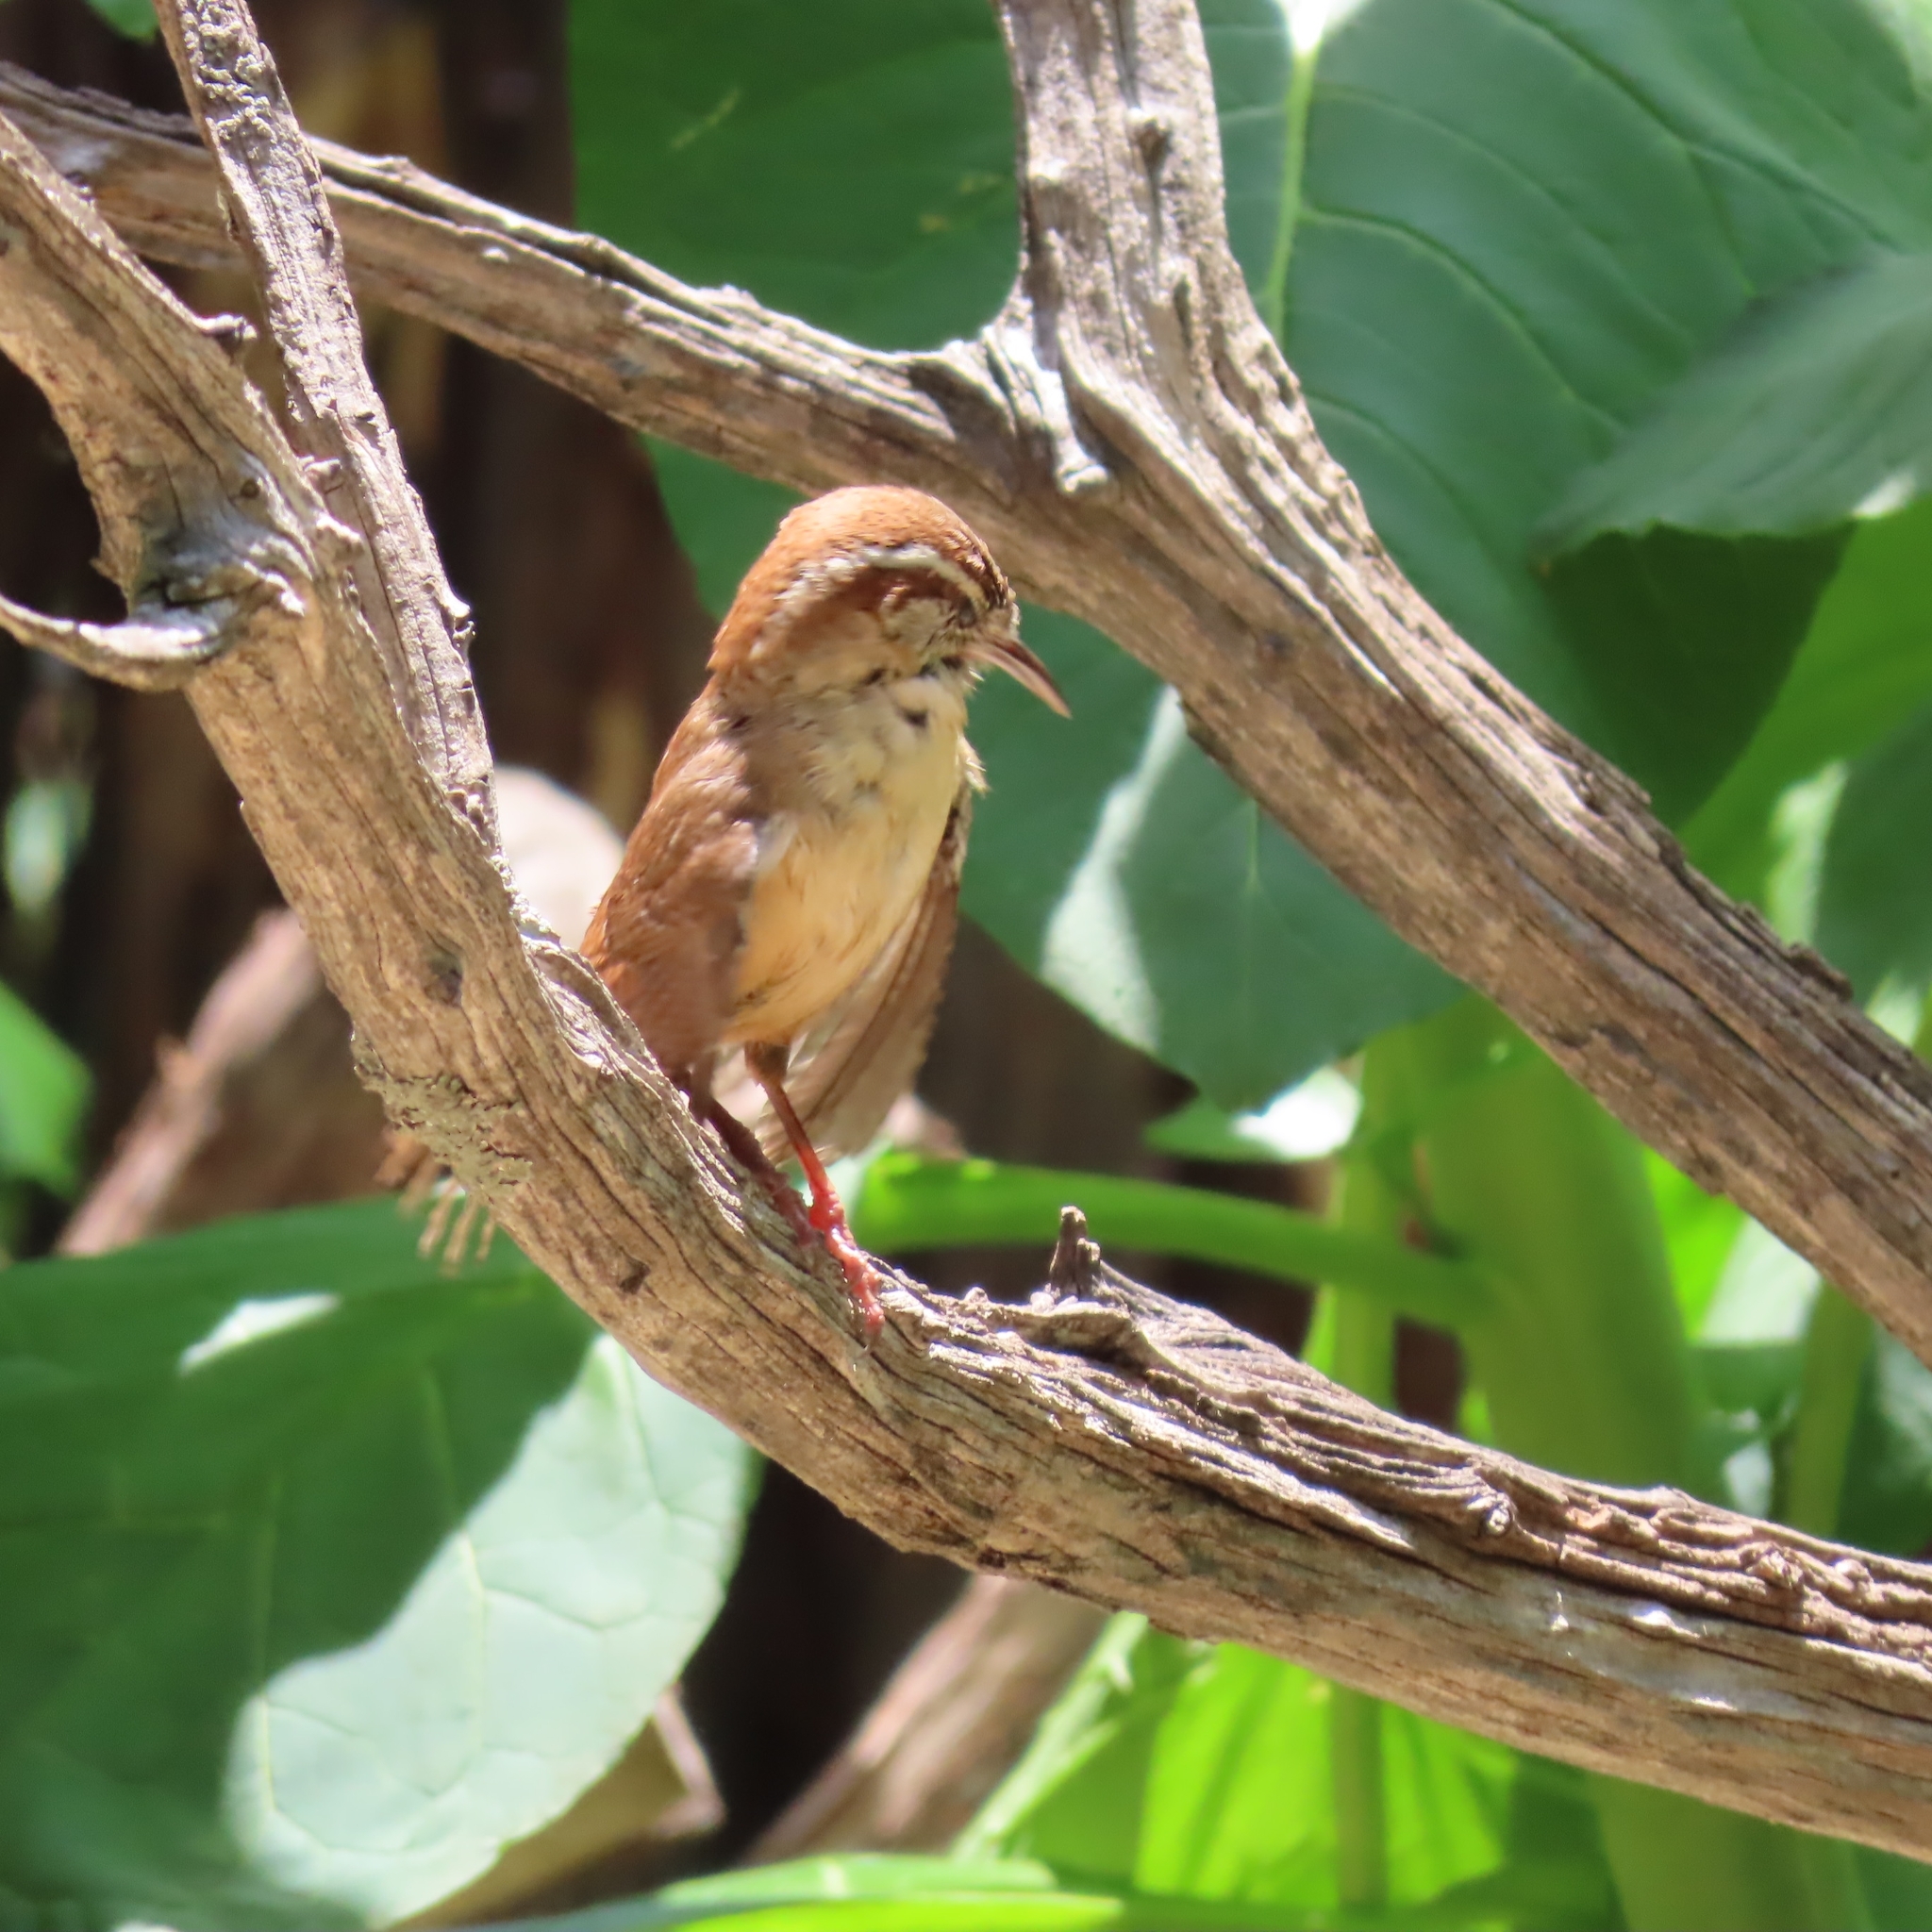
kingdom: Animalia
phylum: Chordata
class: Aves
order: Passeriformes
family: Troglodytidae
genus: Thryothorus
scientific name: Thryothorus ludovicianus
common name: Carolina wren
